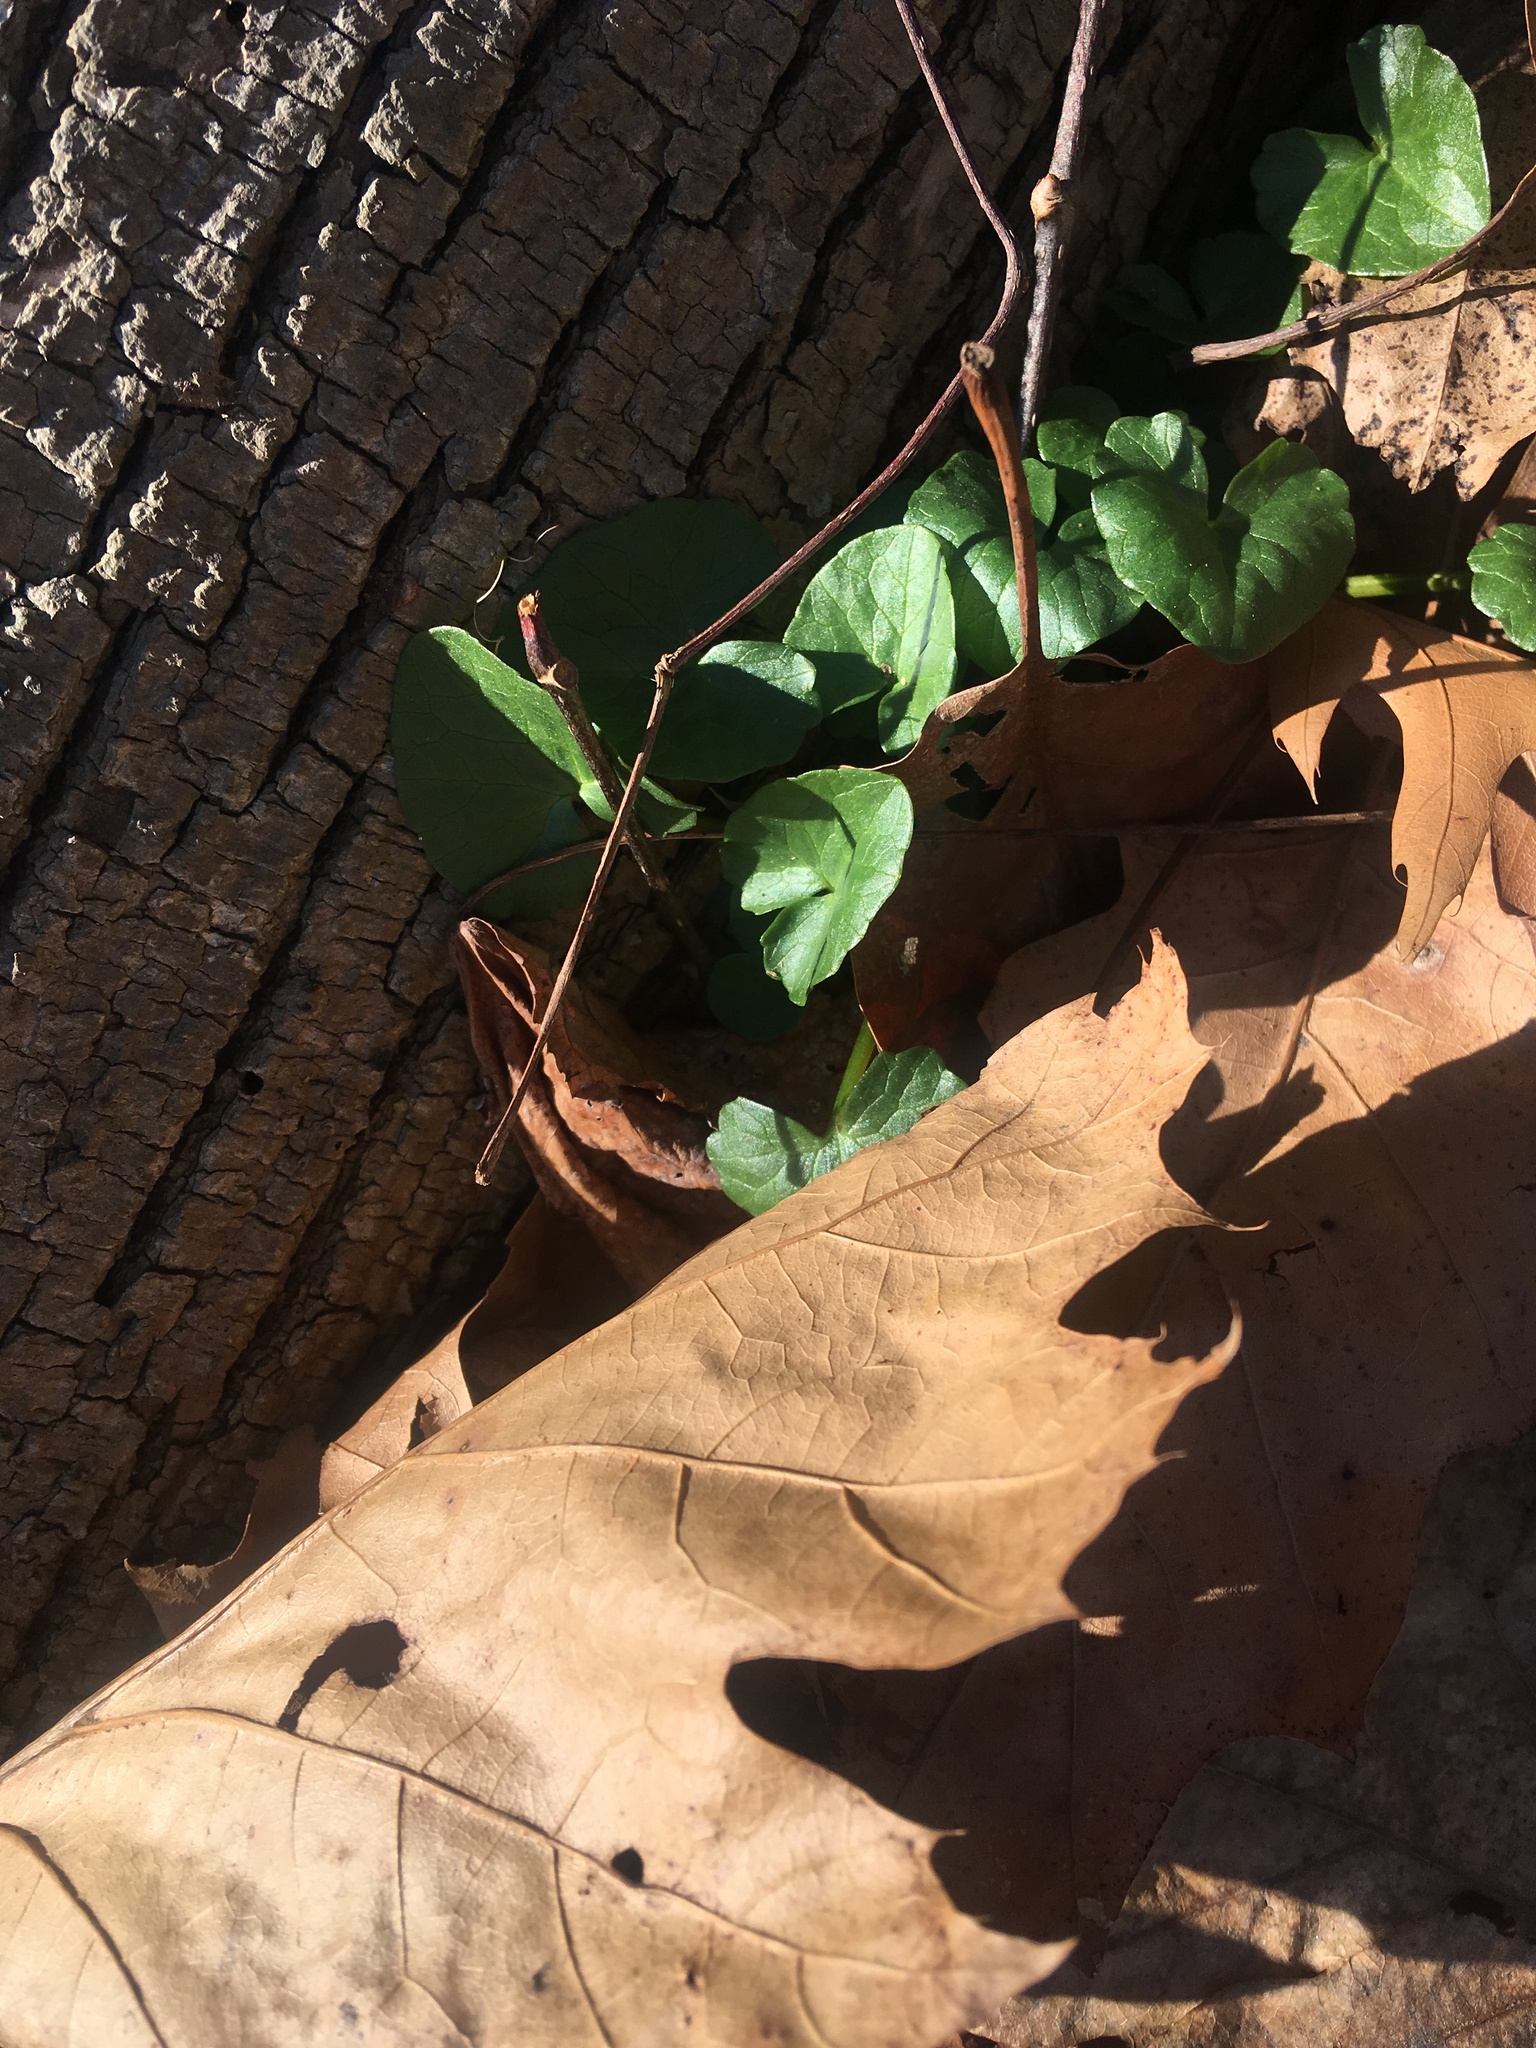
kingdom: Plantae
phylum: Tracheophyta
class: Magnoliopsida
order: Ranunculales
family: Ranunculaceae
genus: Ficaria
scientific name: Ficaria verna
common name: Lesser celandine
